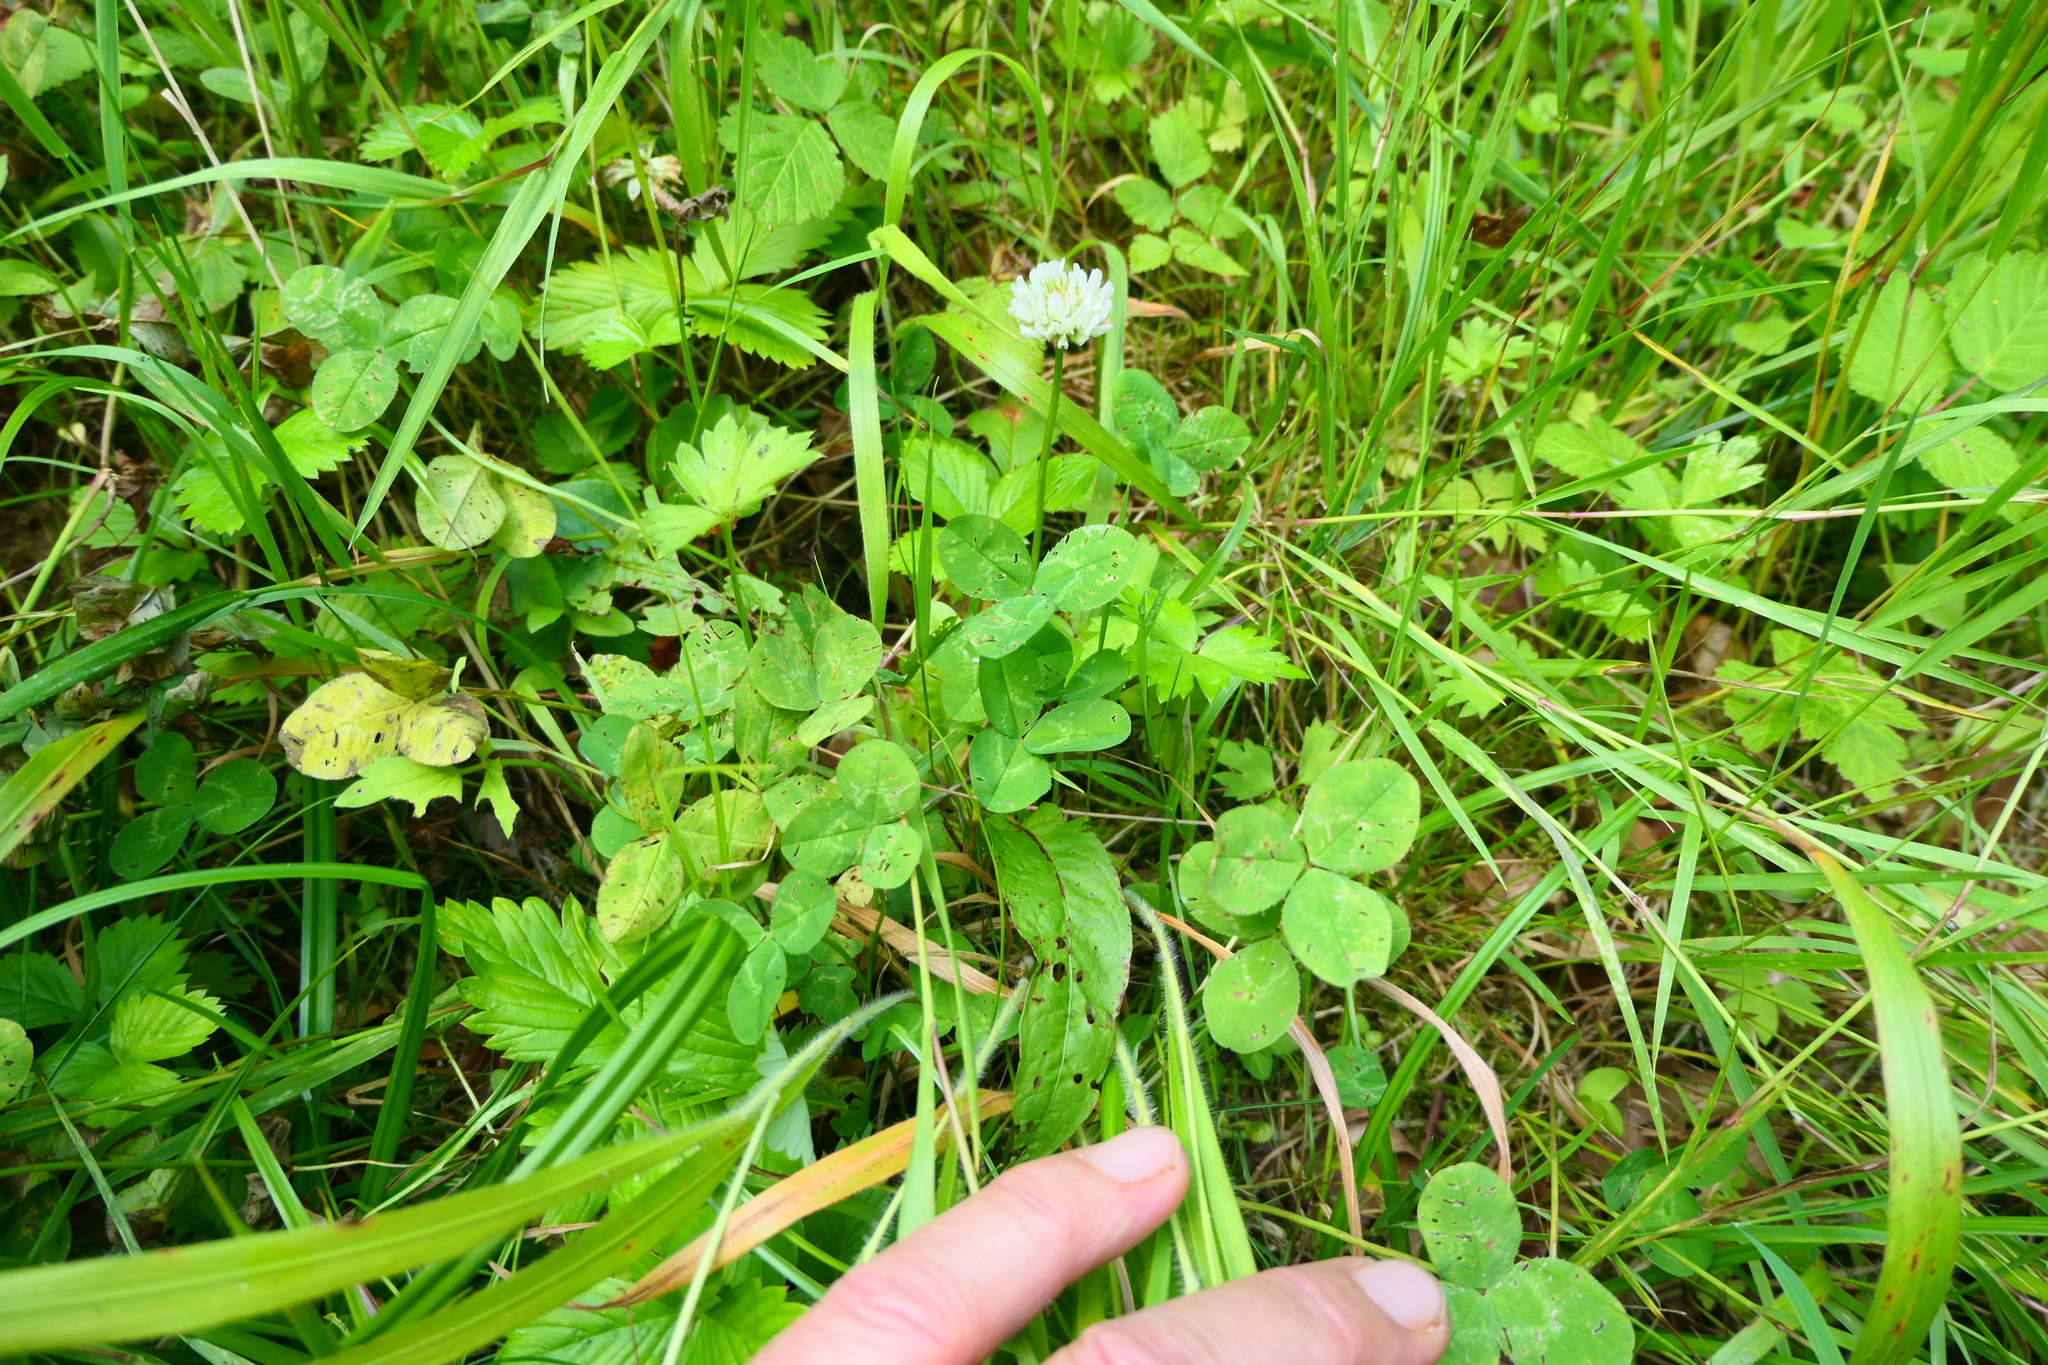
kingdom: Plantae
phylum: Tracheophyta
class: Magnoliopsida
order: Fabales
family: Fabaceae
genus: Trifolium
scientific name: Trifolium repens
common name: White clover
